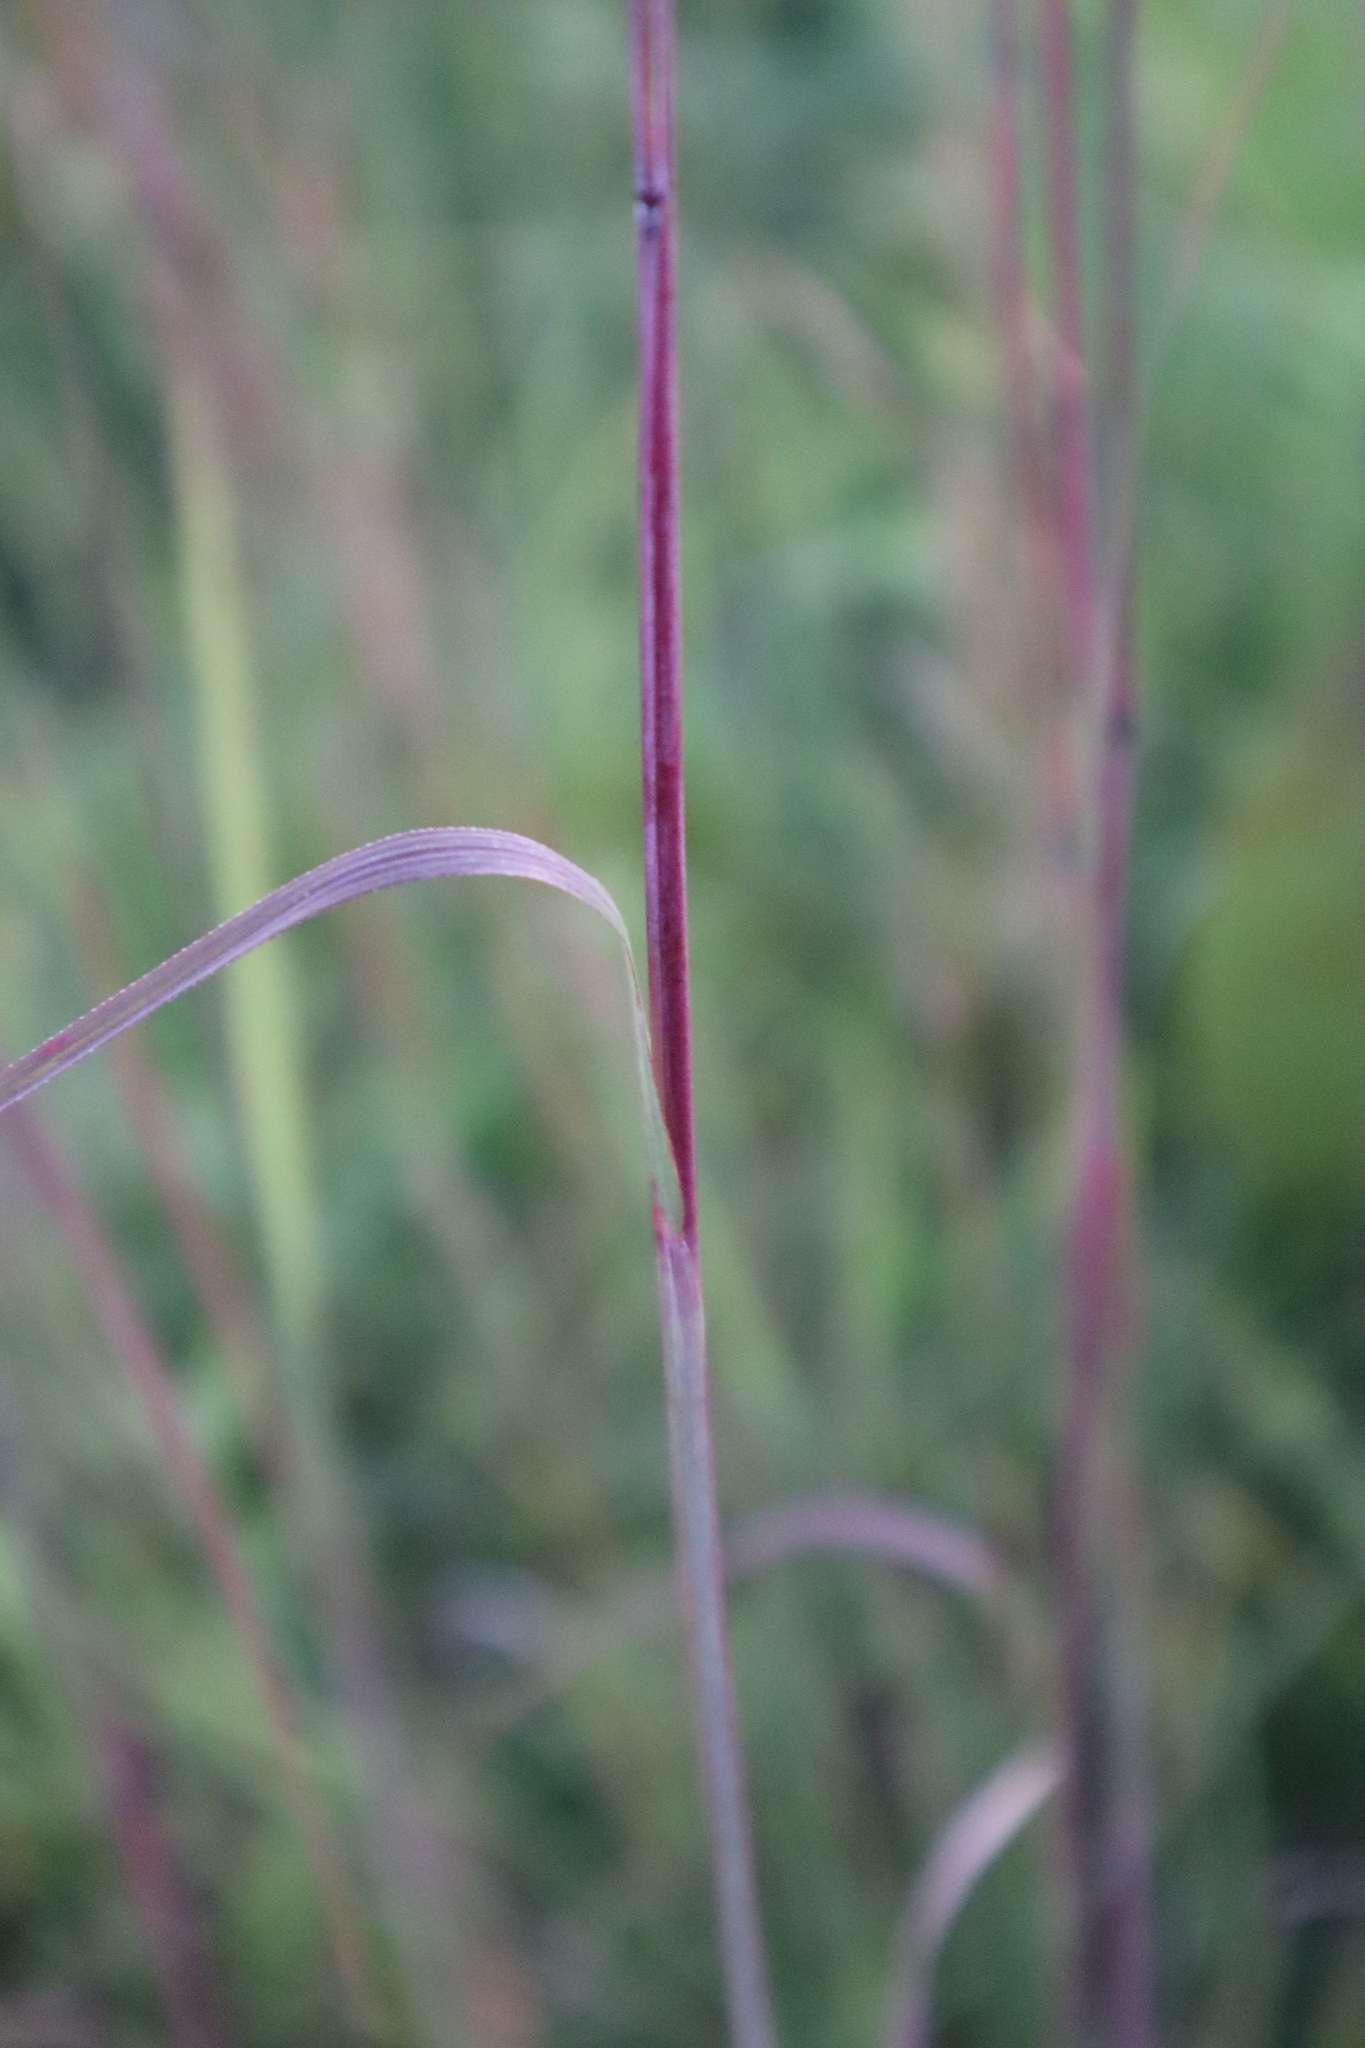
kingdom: Plantae
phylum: Tracheophyta
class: Liliopsida
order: Poales
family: Poaceae
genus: Andropogon
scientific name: Andropogon gerardi
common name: Big bluestem
